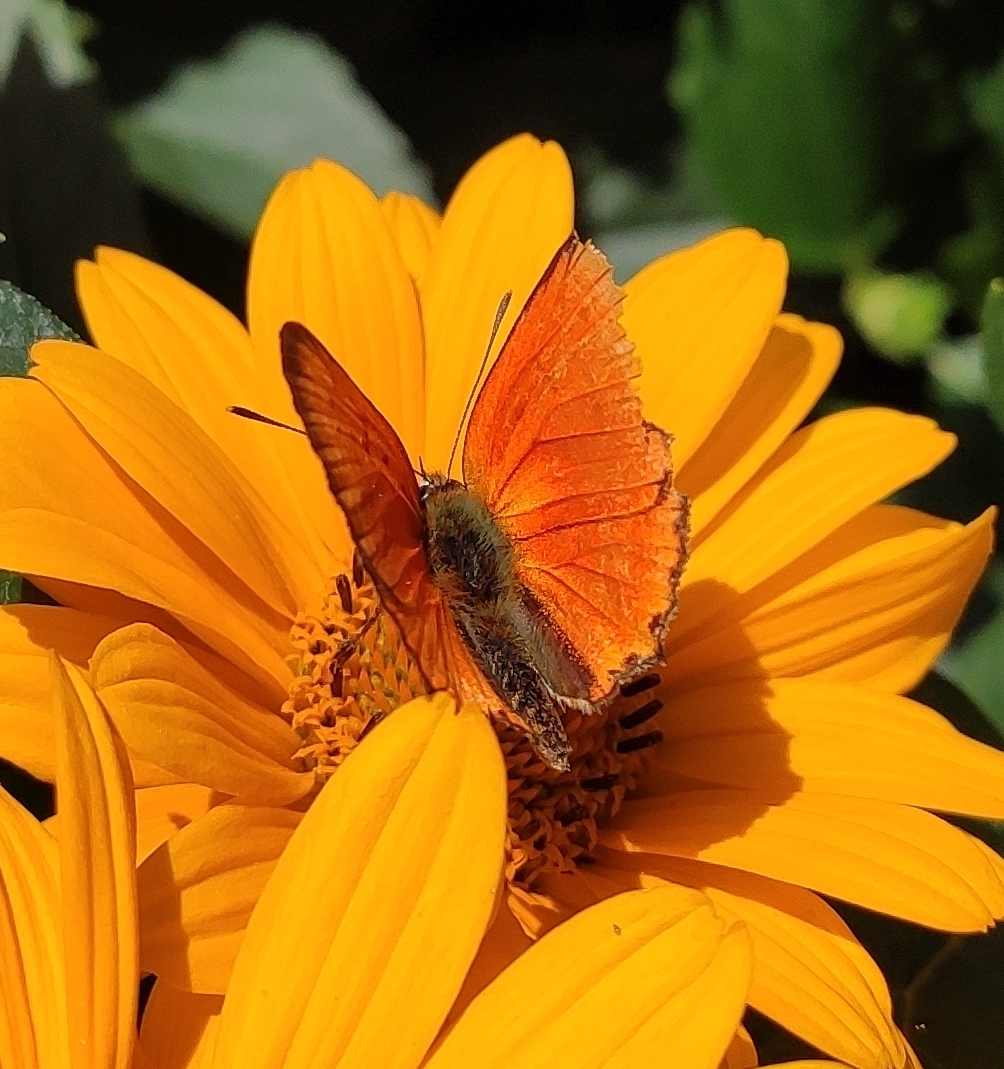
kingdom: Animalia
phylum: Arthropoda
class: Insecta
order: Lepidoptera
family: Lycaenidae
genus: Lycaena
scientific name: Lycaena virgaureae
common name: Scarce copper
